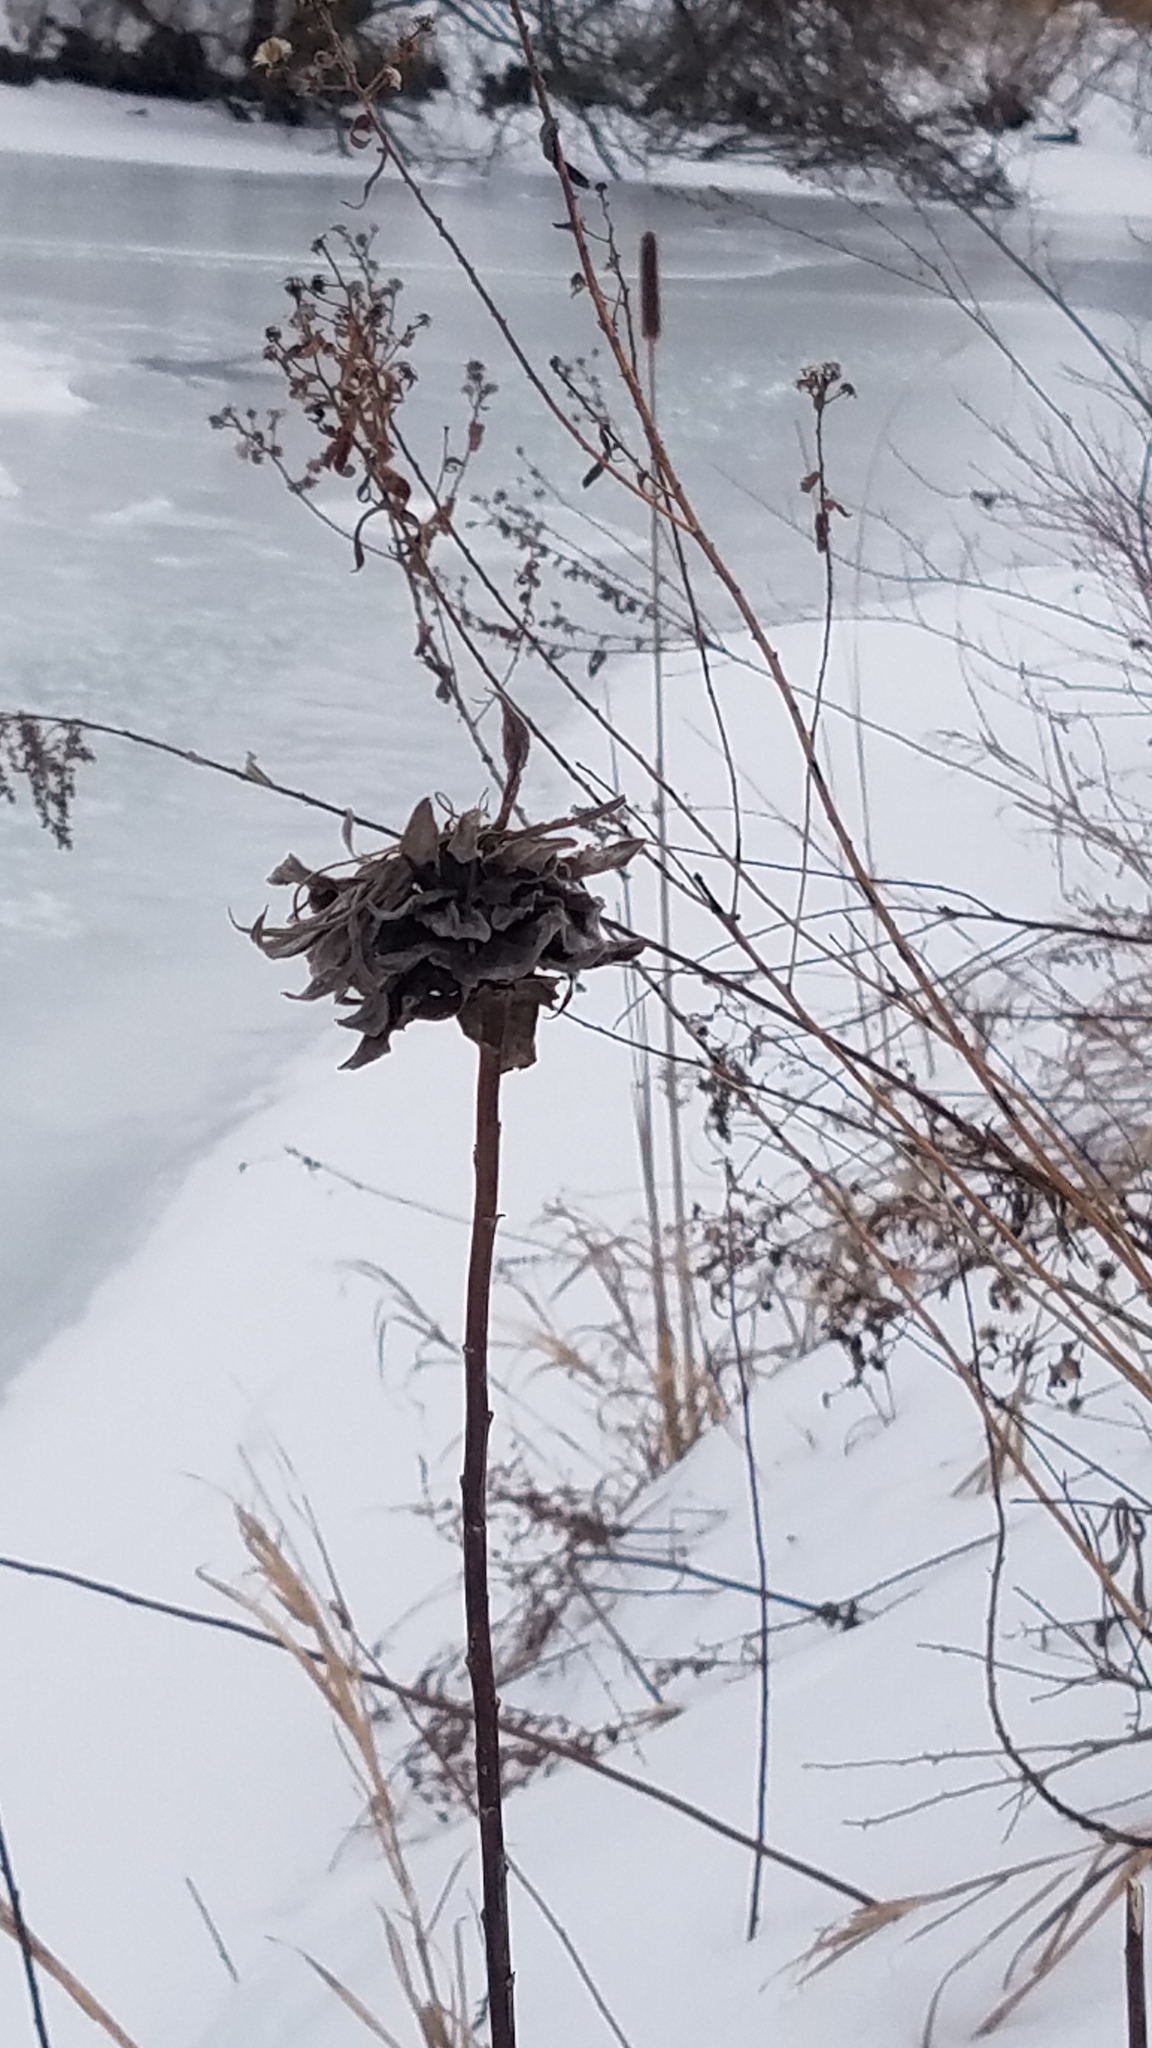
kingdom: Animalia
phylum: Arthropoda
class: Insecta
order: Diptera
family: Cecidomyiidae
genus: Rhopalomyia
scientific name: Rhopalomyia solidaginis
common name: Goldenrod bunch gall midge
